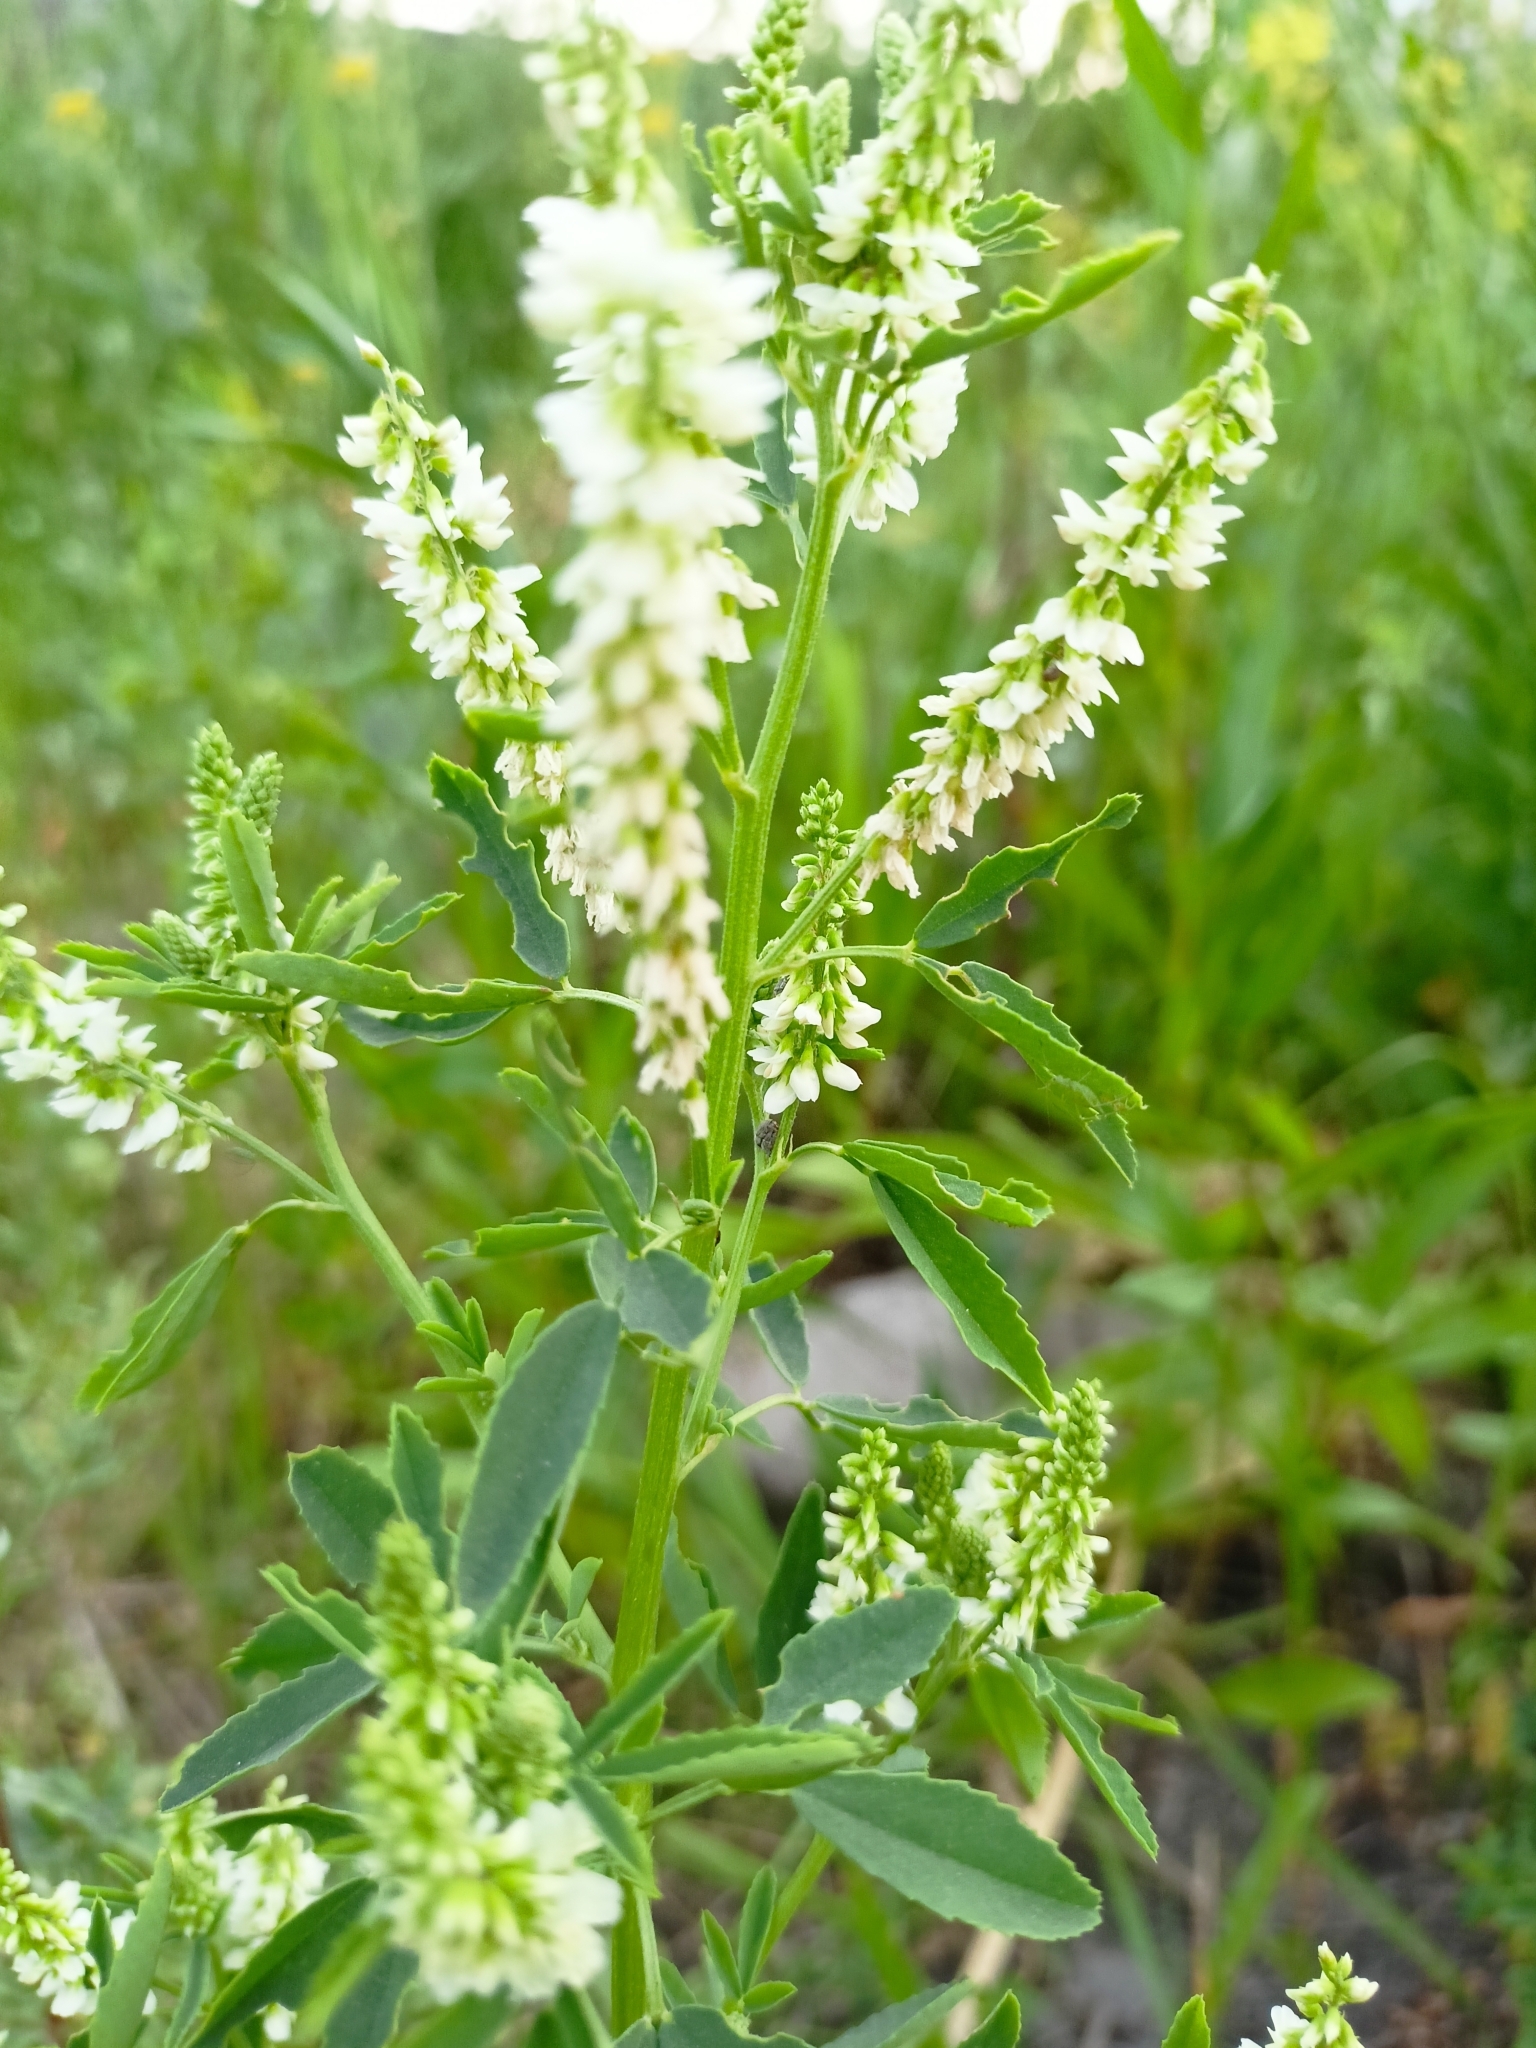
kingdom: Plantae
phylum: Tracheophyta
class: Magnoliopsida
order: Fabales
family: Fabaceae
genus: Melilotus
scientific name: Melilotus albus
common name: White melilot
